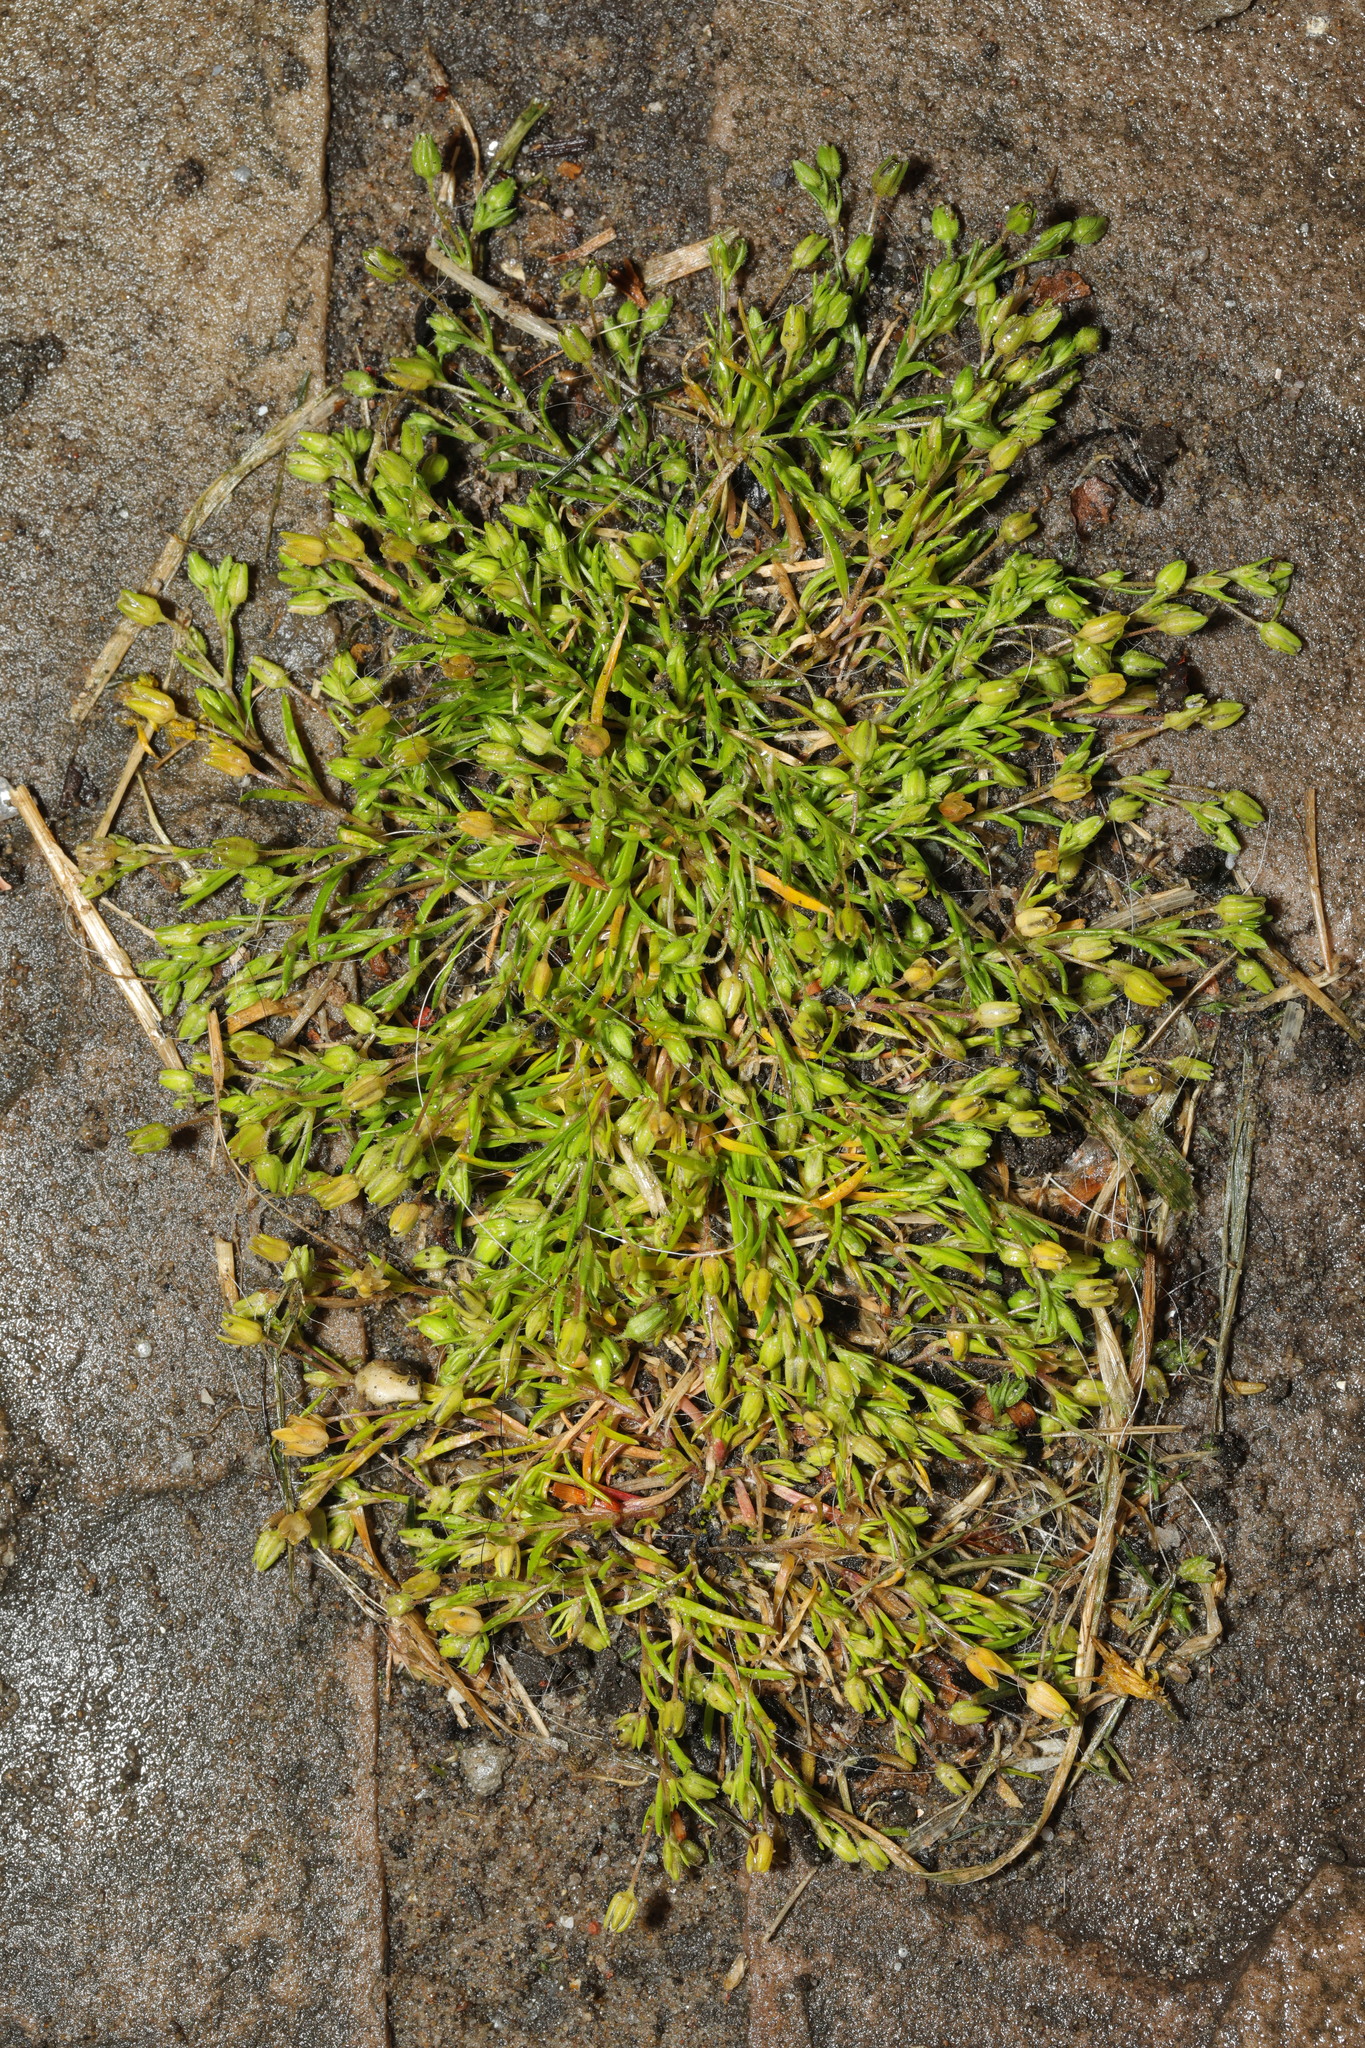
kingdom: Plantae
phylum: Tracheophyta
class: Magnoliopsida
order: Caryophyllales
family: Caryophyllaceae
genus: Sagina
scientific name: Sagina procumbens
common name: Procumbent pearlwort
